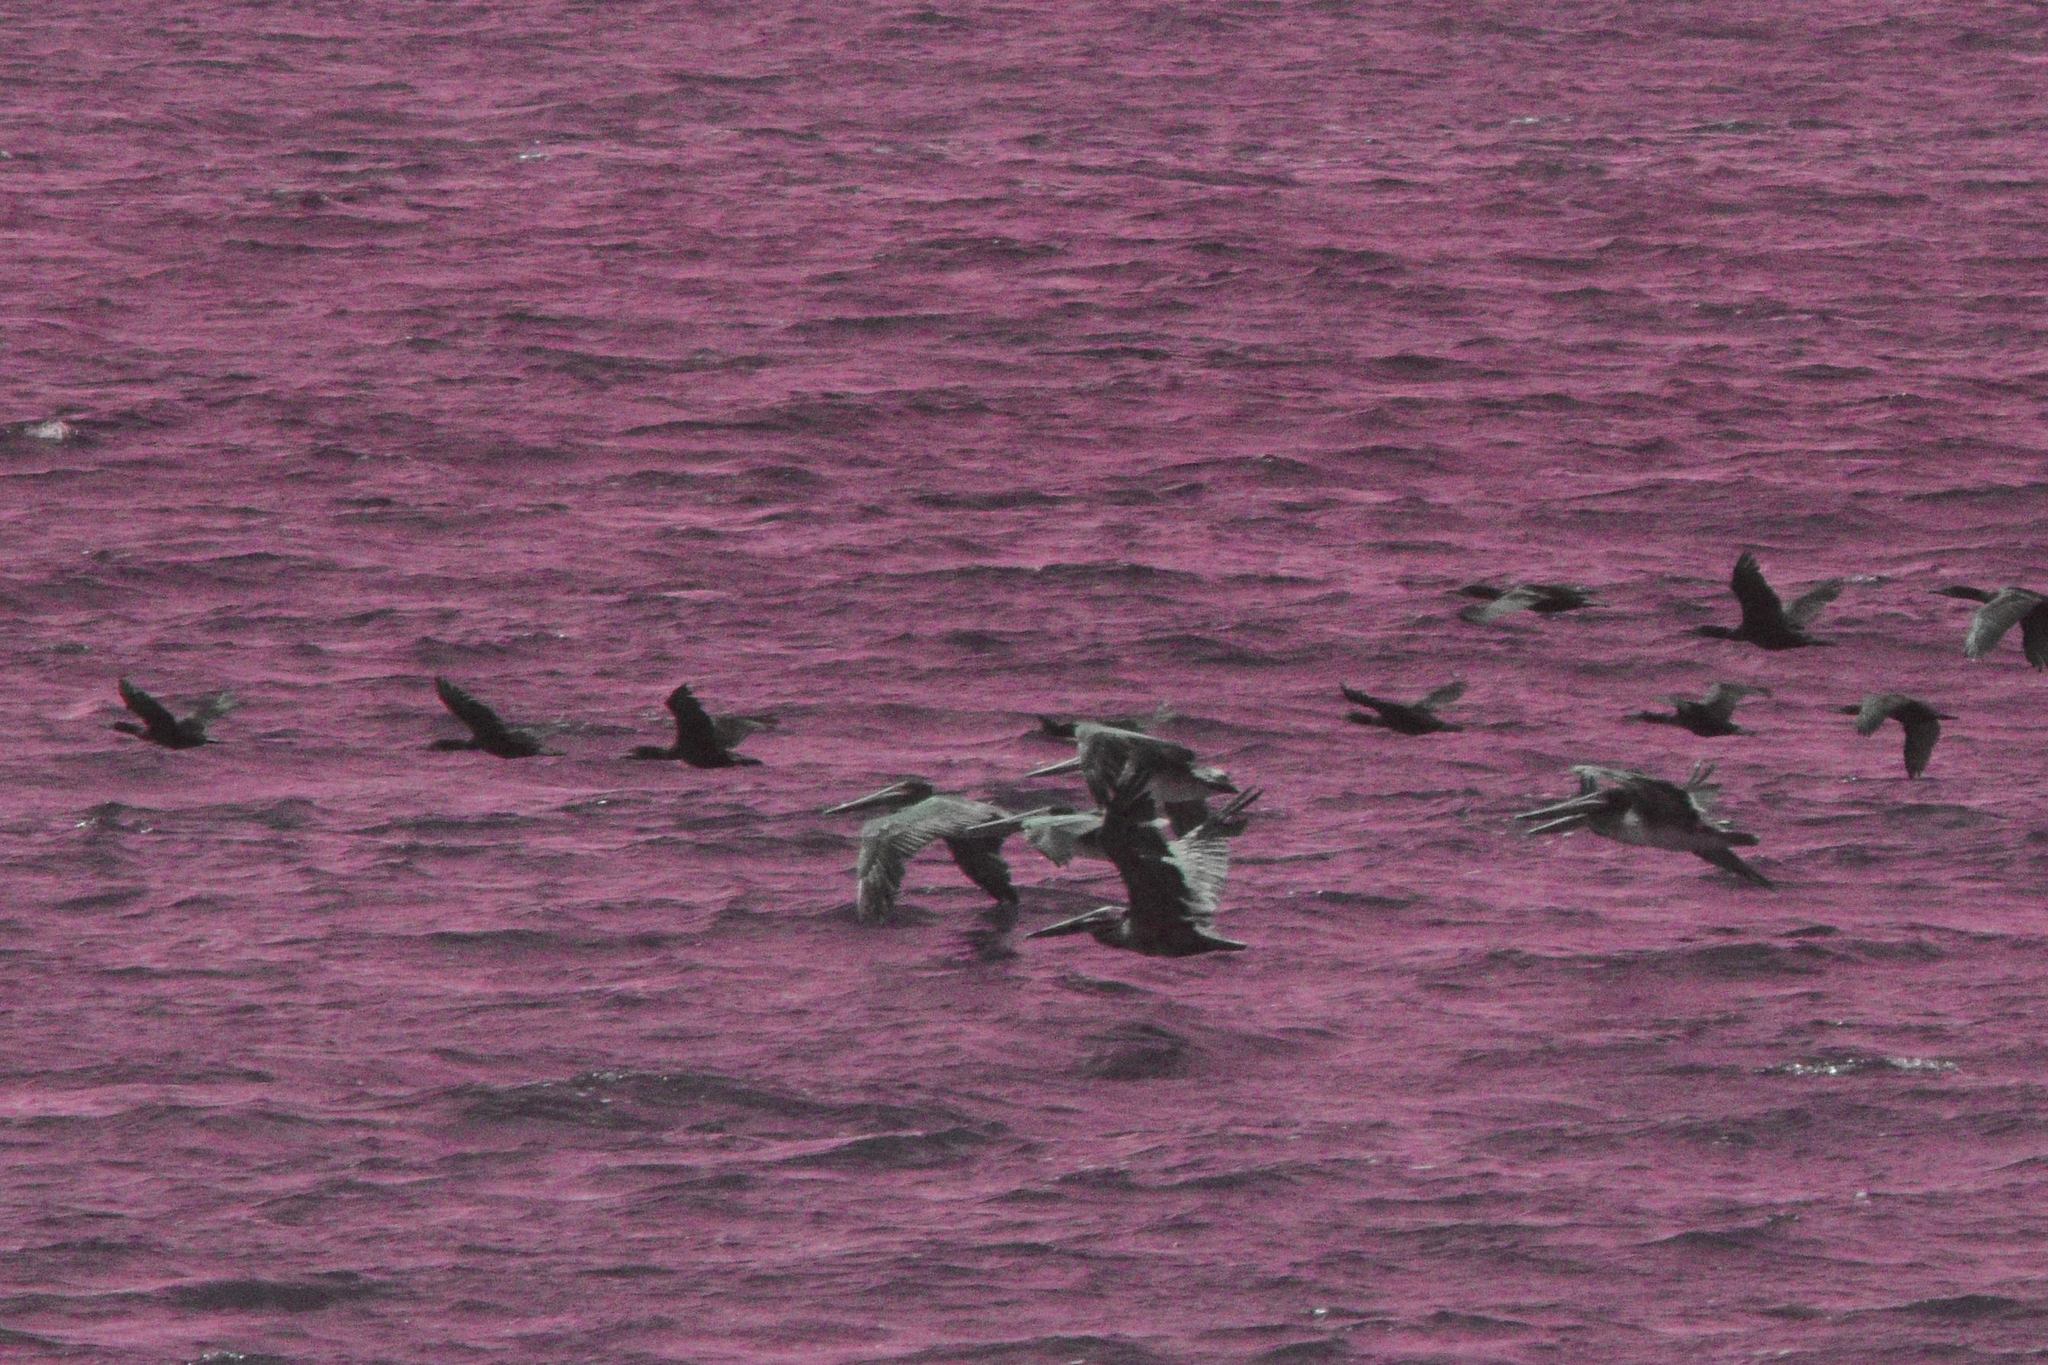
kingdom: Animalia
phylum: Chordata
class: Aves
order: Pelecaniformes
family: Pelecanidae
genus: Pelecanus
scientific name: Pelecanus occidentalis
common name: Brown pelican
